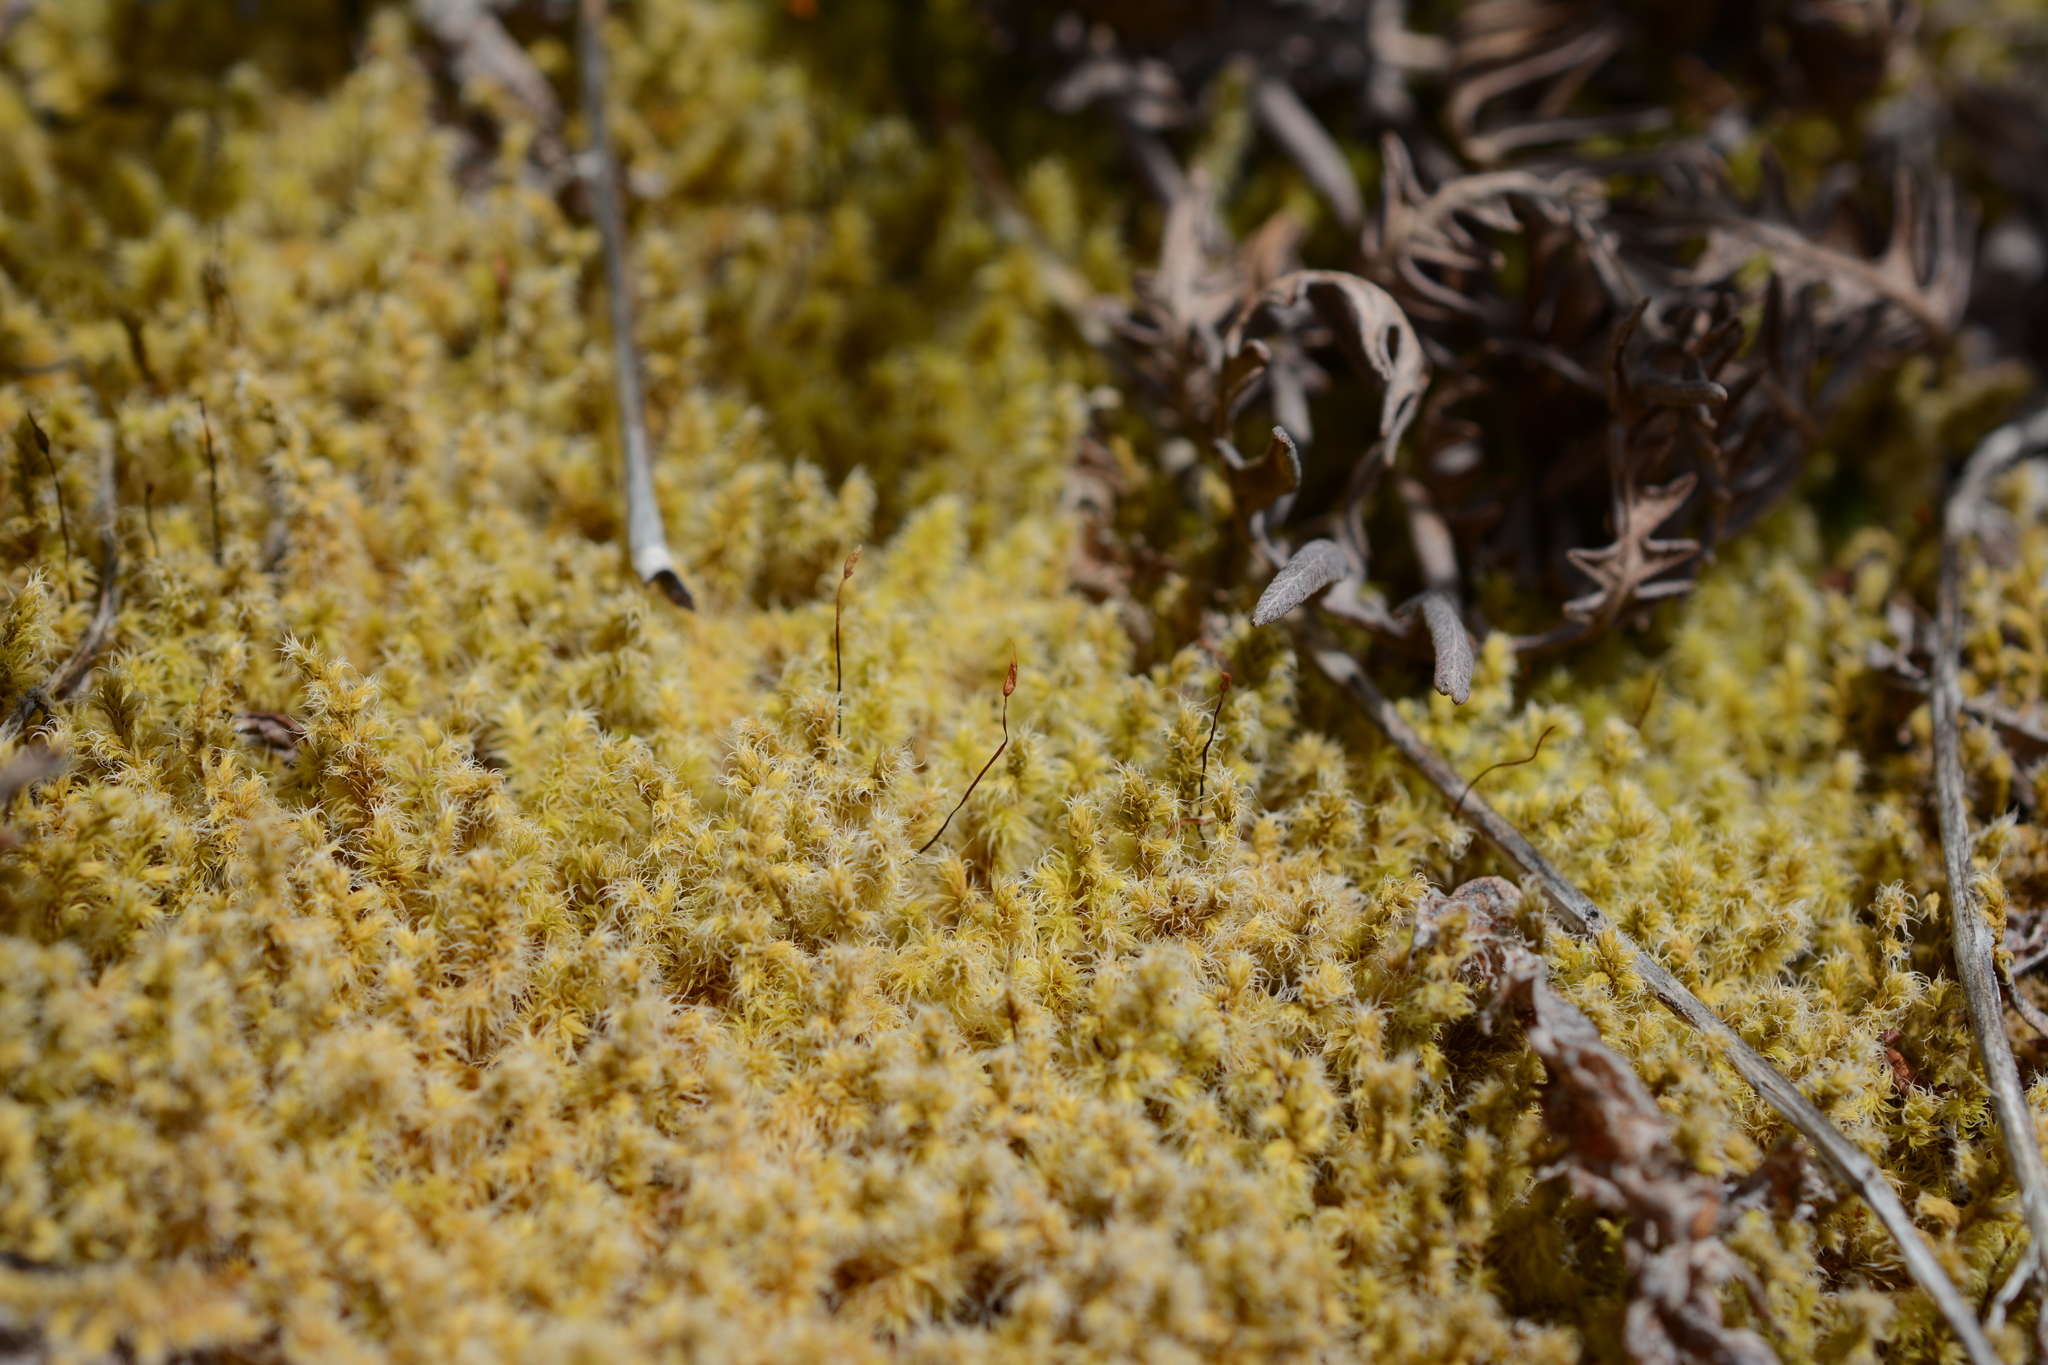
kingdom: Plantae
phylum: Bryophyta
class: Bryopsida
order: Grimmiales
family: Grimmiaceae
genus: Niphotrichum
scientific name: Niphotrichum elongatum
